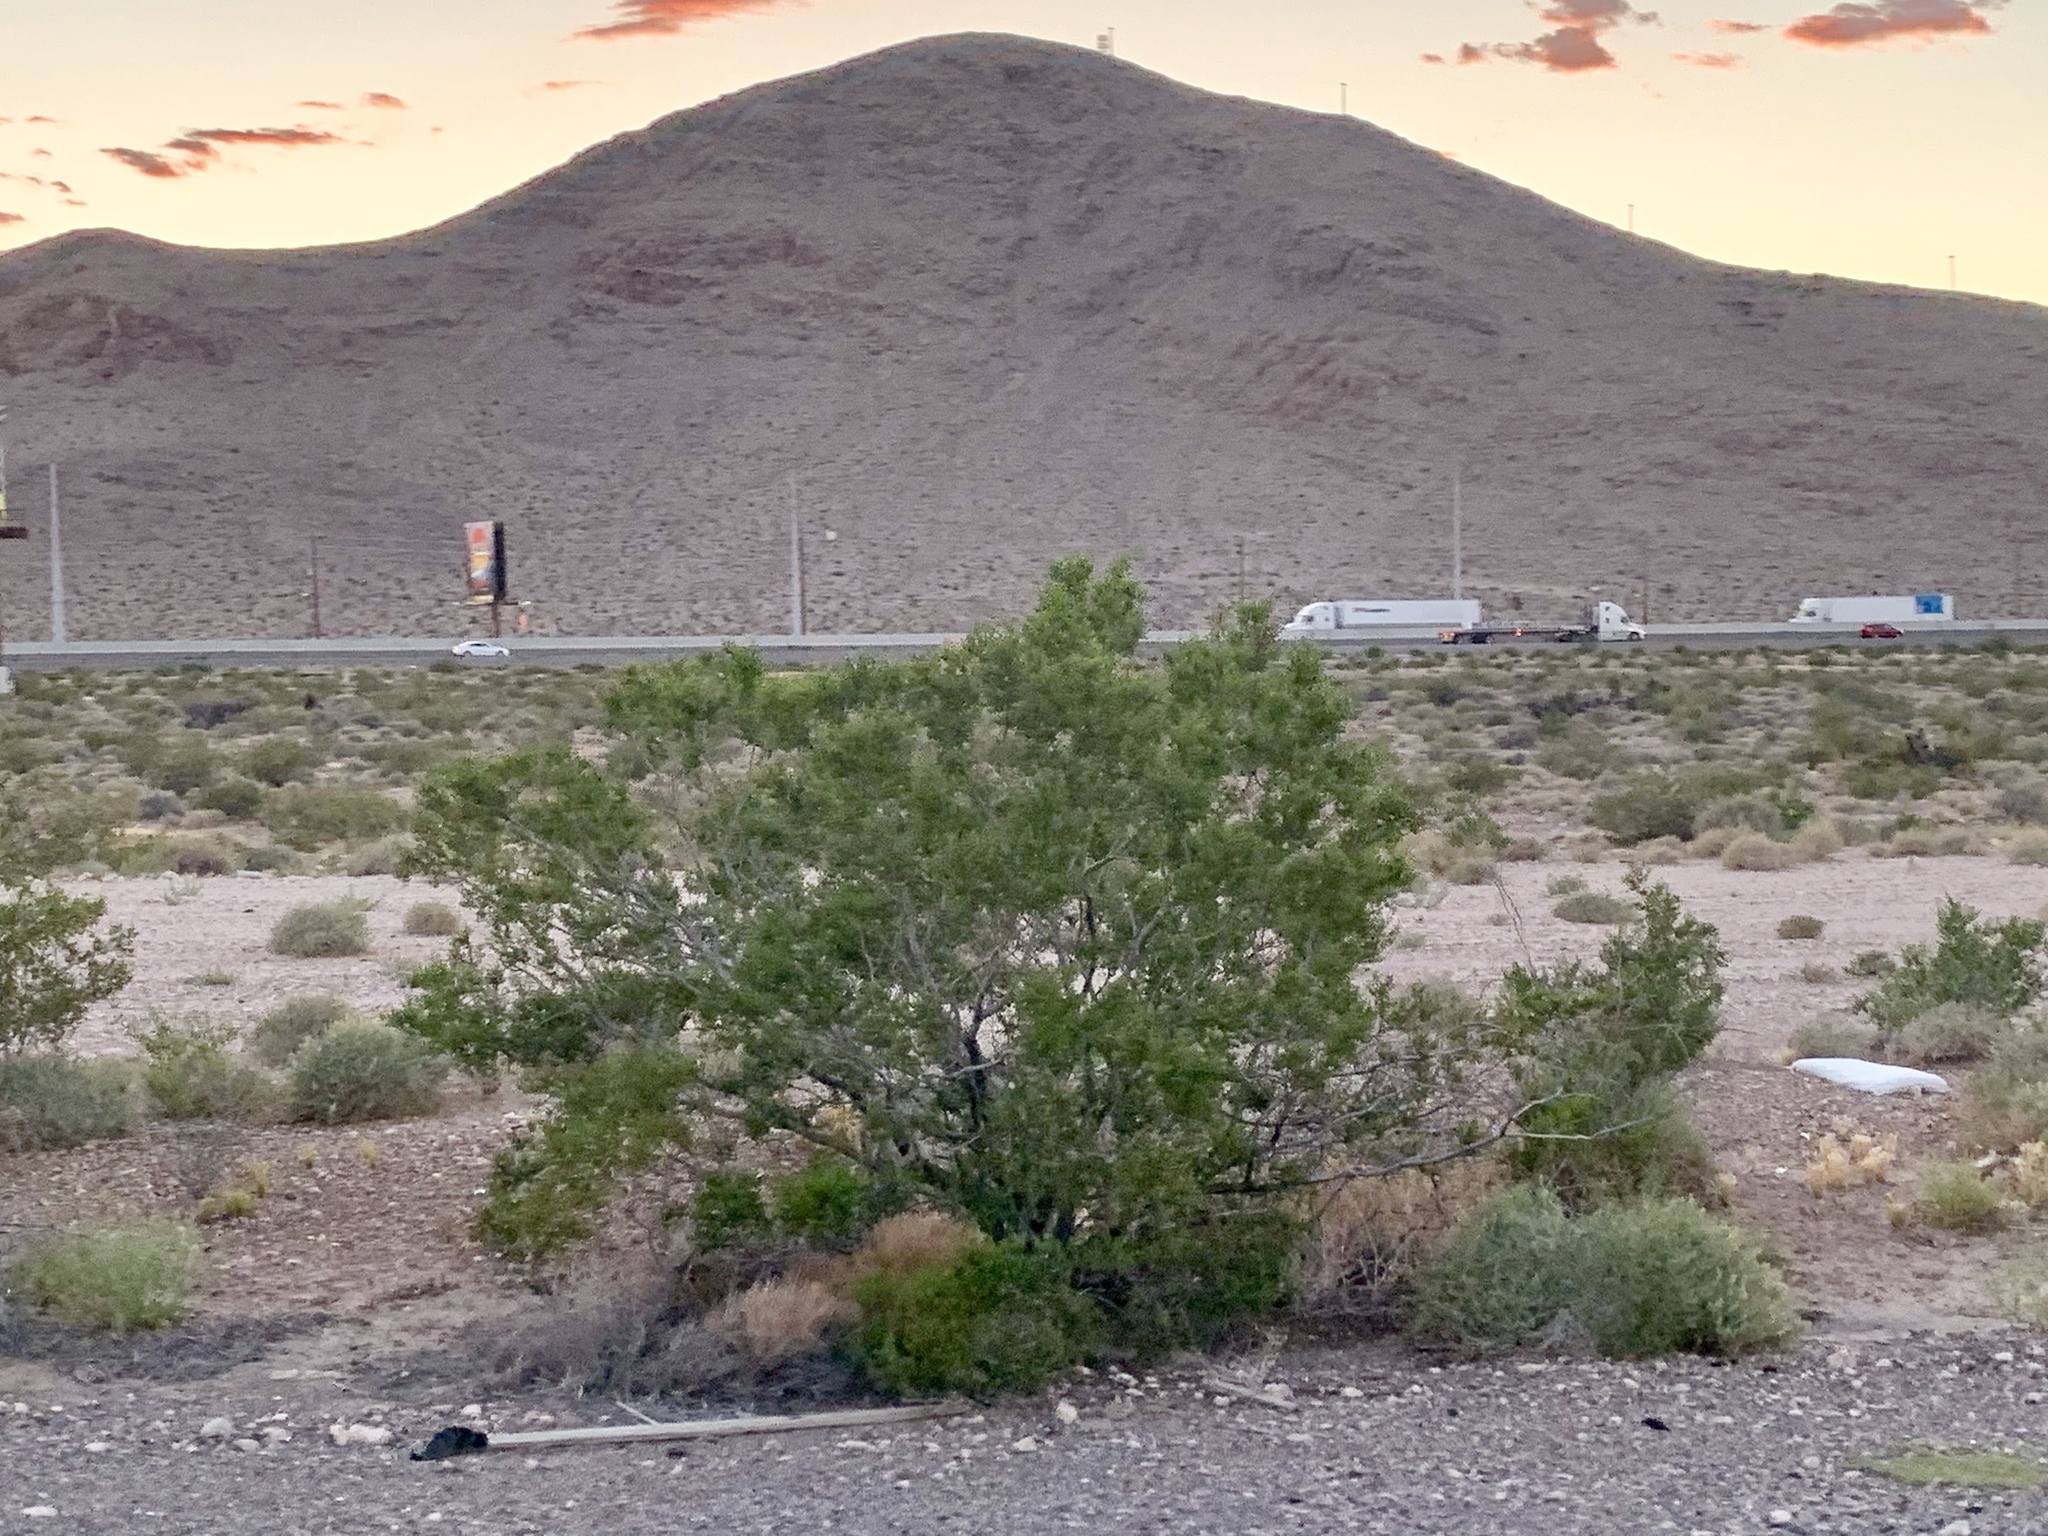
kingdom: Plantae
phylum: Tracheophyta
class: Magnoliopsida
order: Zygophyllales
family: Zygophyllaceae
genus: Larrea
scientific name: Larrea tridentata
